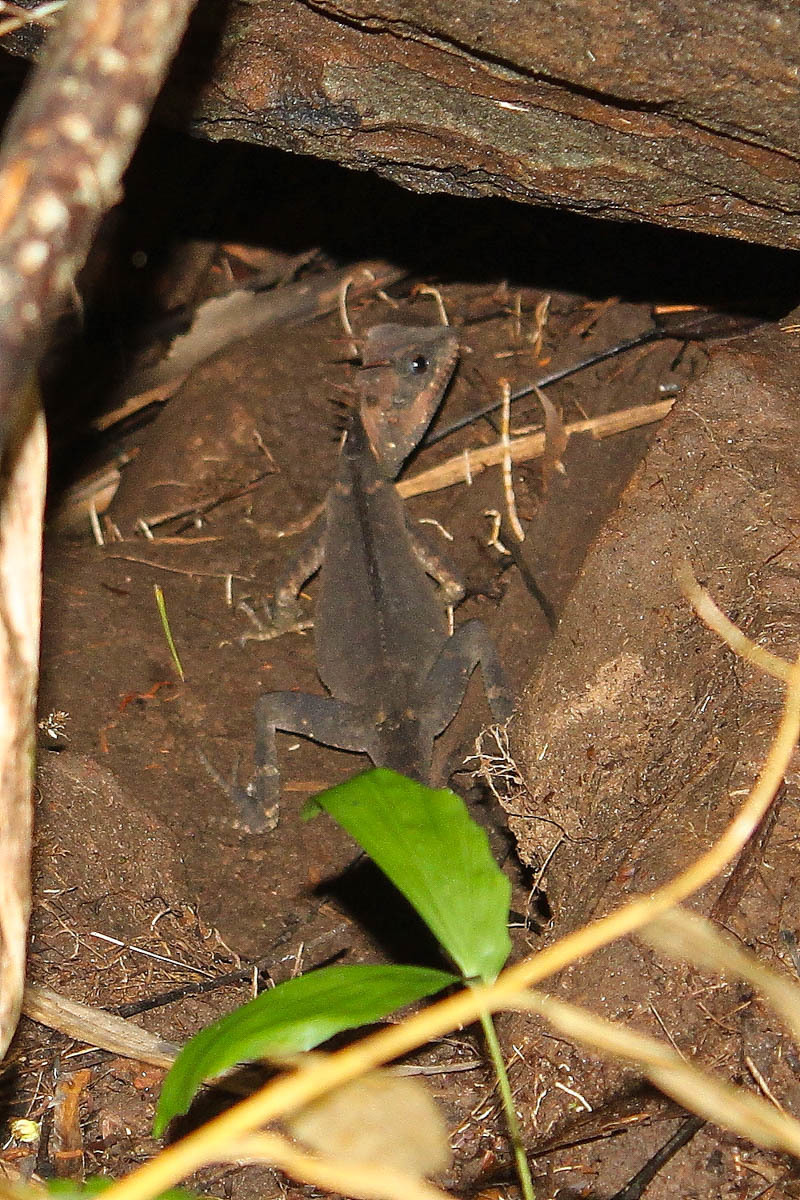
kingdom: Animalia
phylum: Chordata
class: Squamata
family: Agamidae
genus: Acanthosaura
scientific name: Acanthosaura cardamomensis
